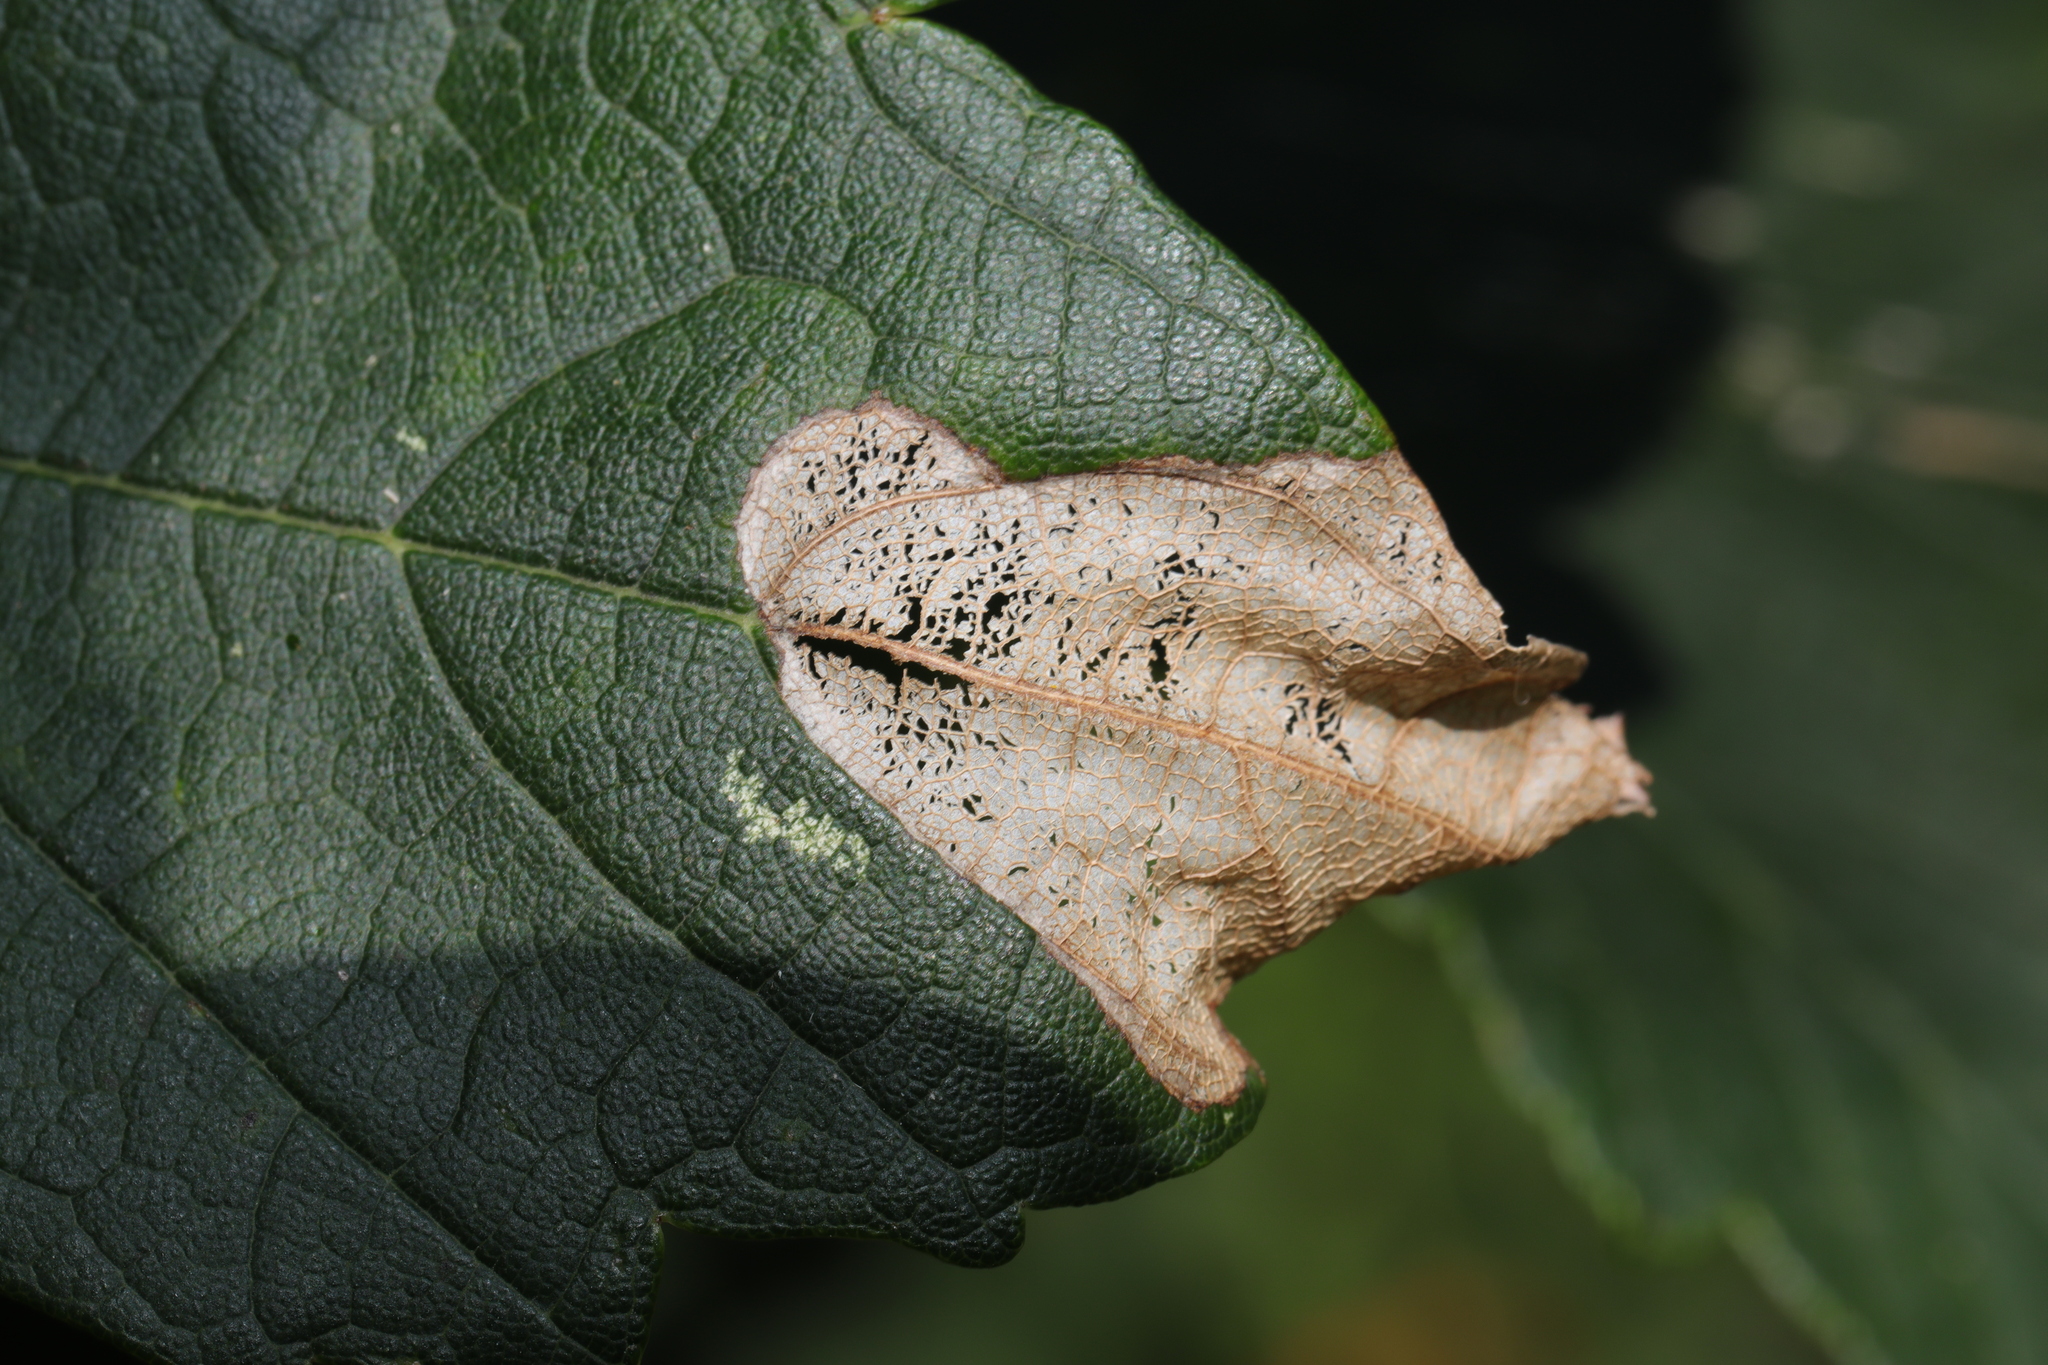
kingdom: Animalia
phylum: Arthropoda
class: Insecta
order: Hymenoptera
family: Tenthredinidae
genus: Heterarthrus
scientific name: Heterarthrus fiora
